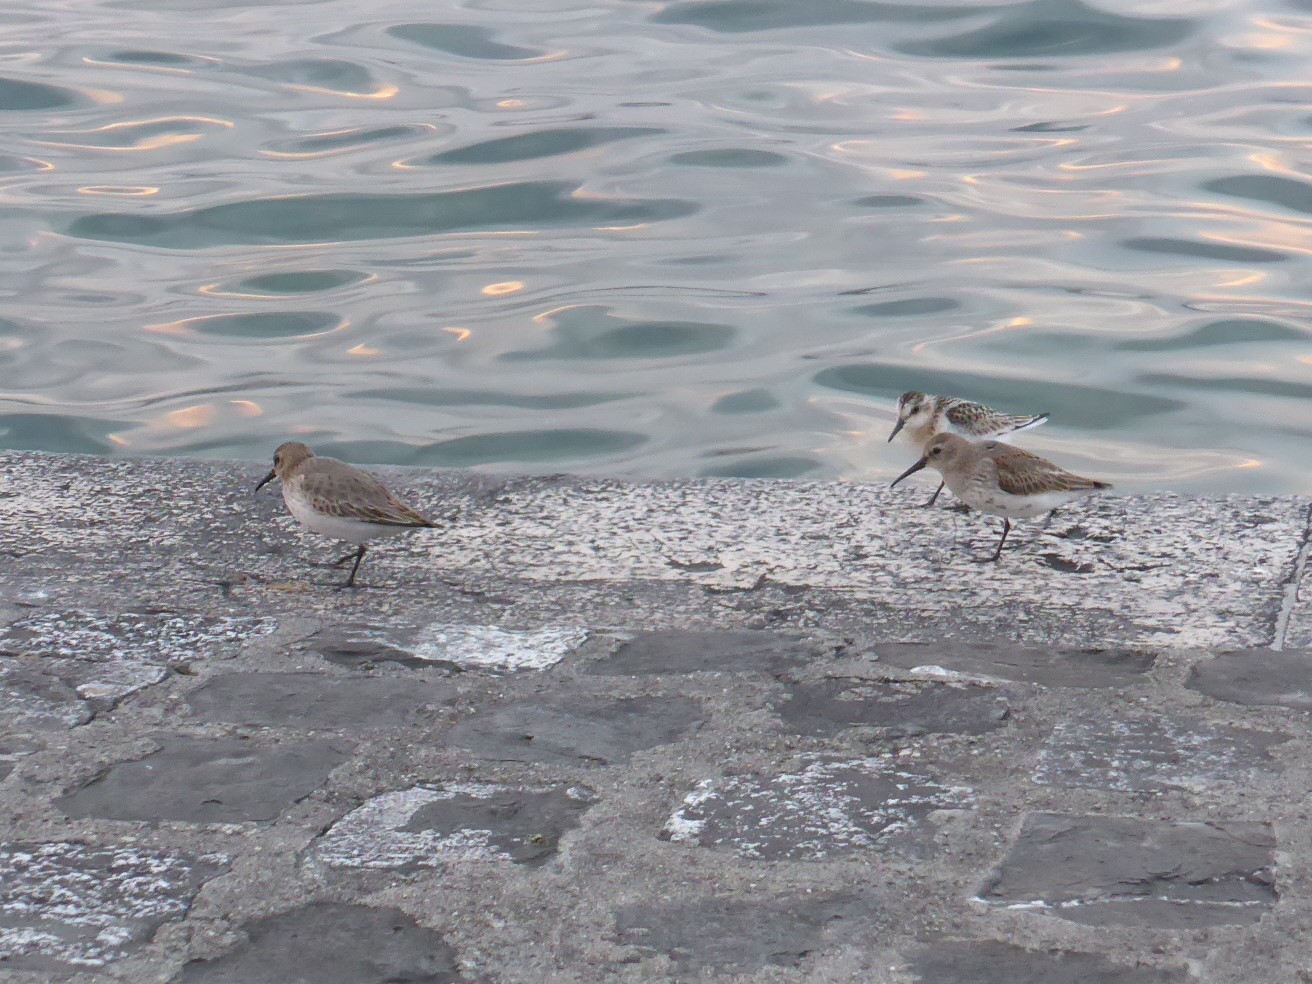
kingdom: Animalia
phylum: Chordata
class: Aves
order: Charadriiformes
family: Scolopacidae
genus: Calidris
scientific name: Calidris alba
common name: Sanderling
